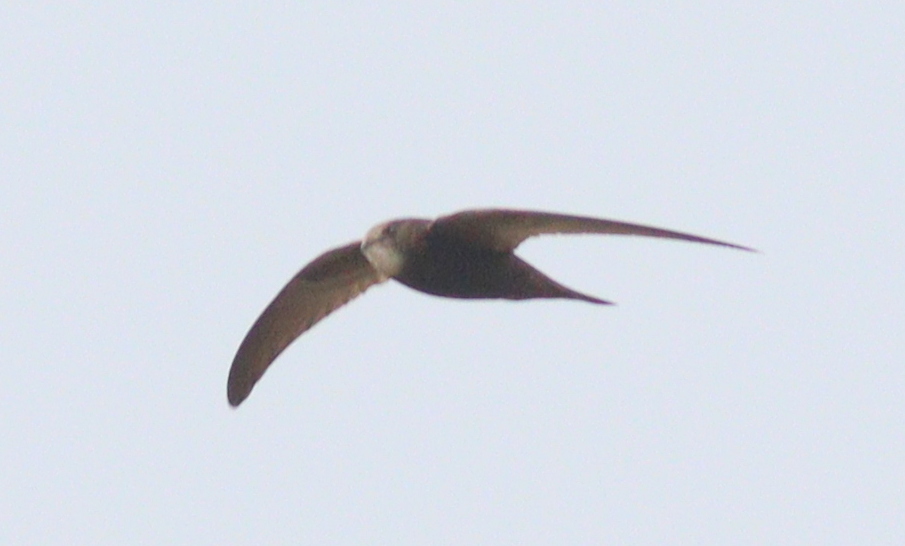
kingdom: Animalia
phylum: Chordata
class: Aves
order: Apodiformes
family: Apodidae
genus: Apus
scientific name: Apus apus
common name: Common swift
